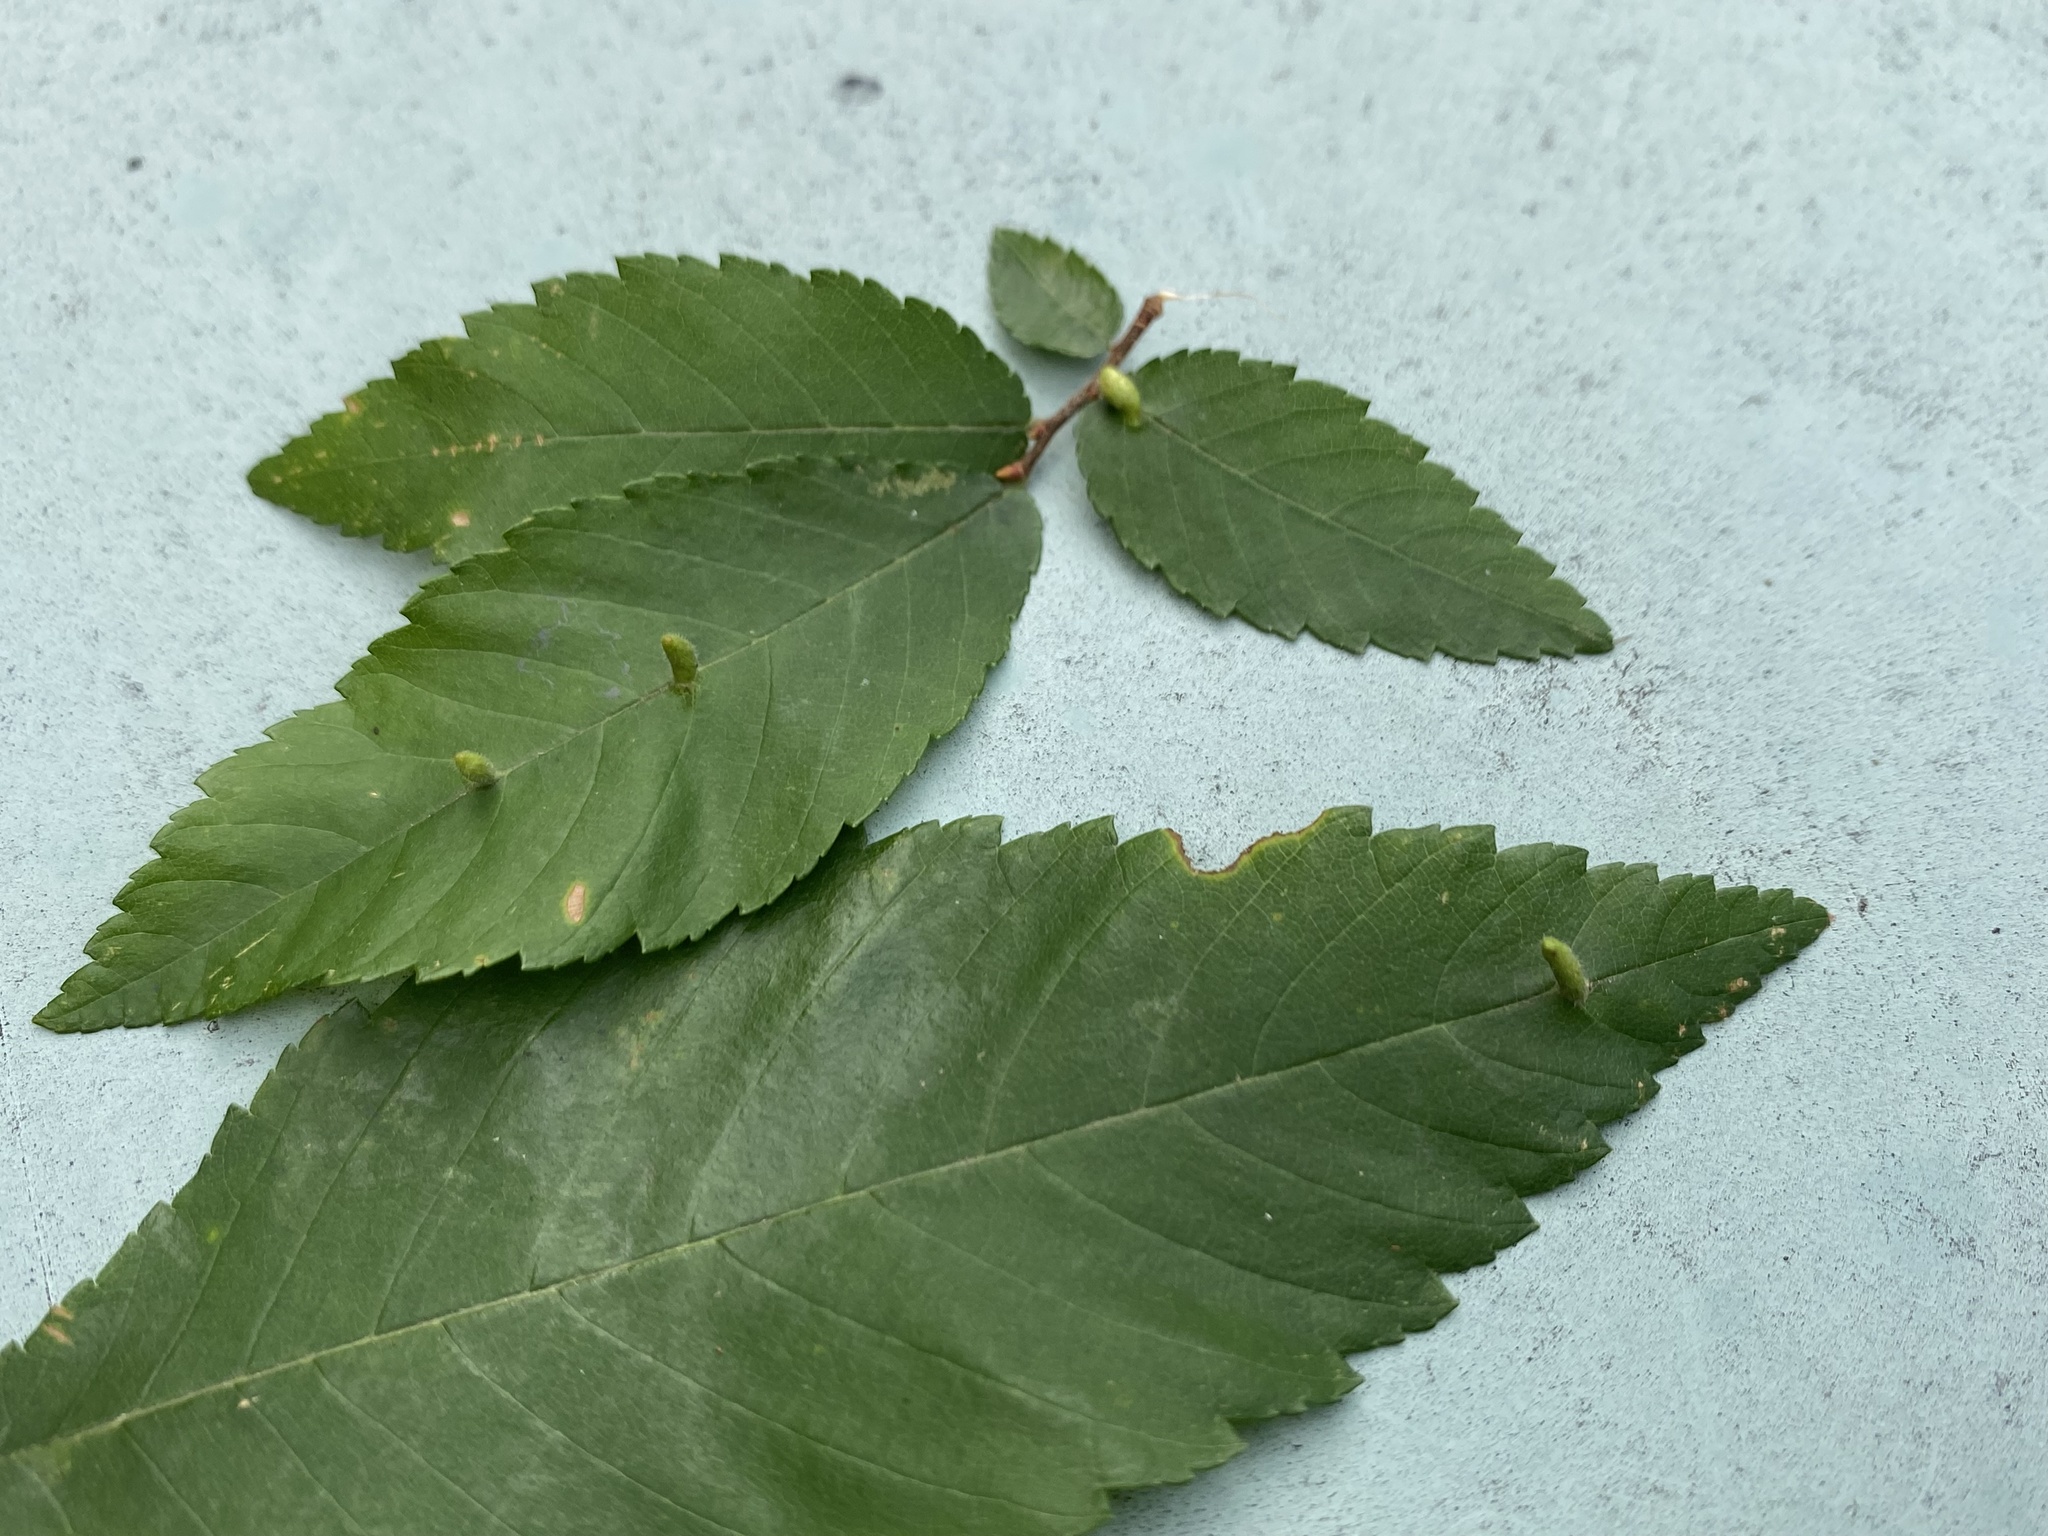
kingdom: Animalia
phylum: Arthropoda
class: Arachnida
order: Trombidiformes
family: Eriophyidae
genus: Aceria
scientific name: Aceria
